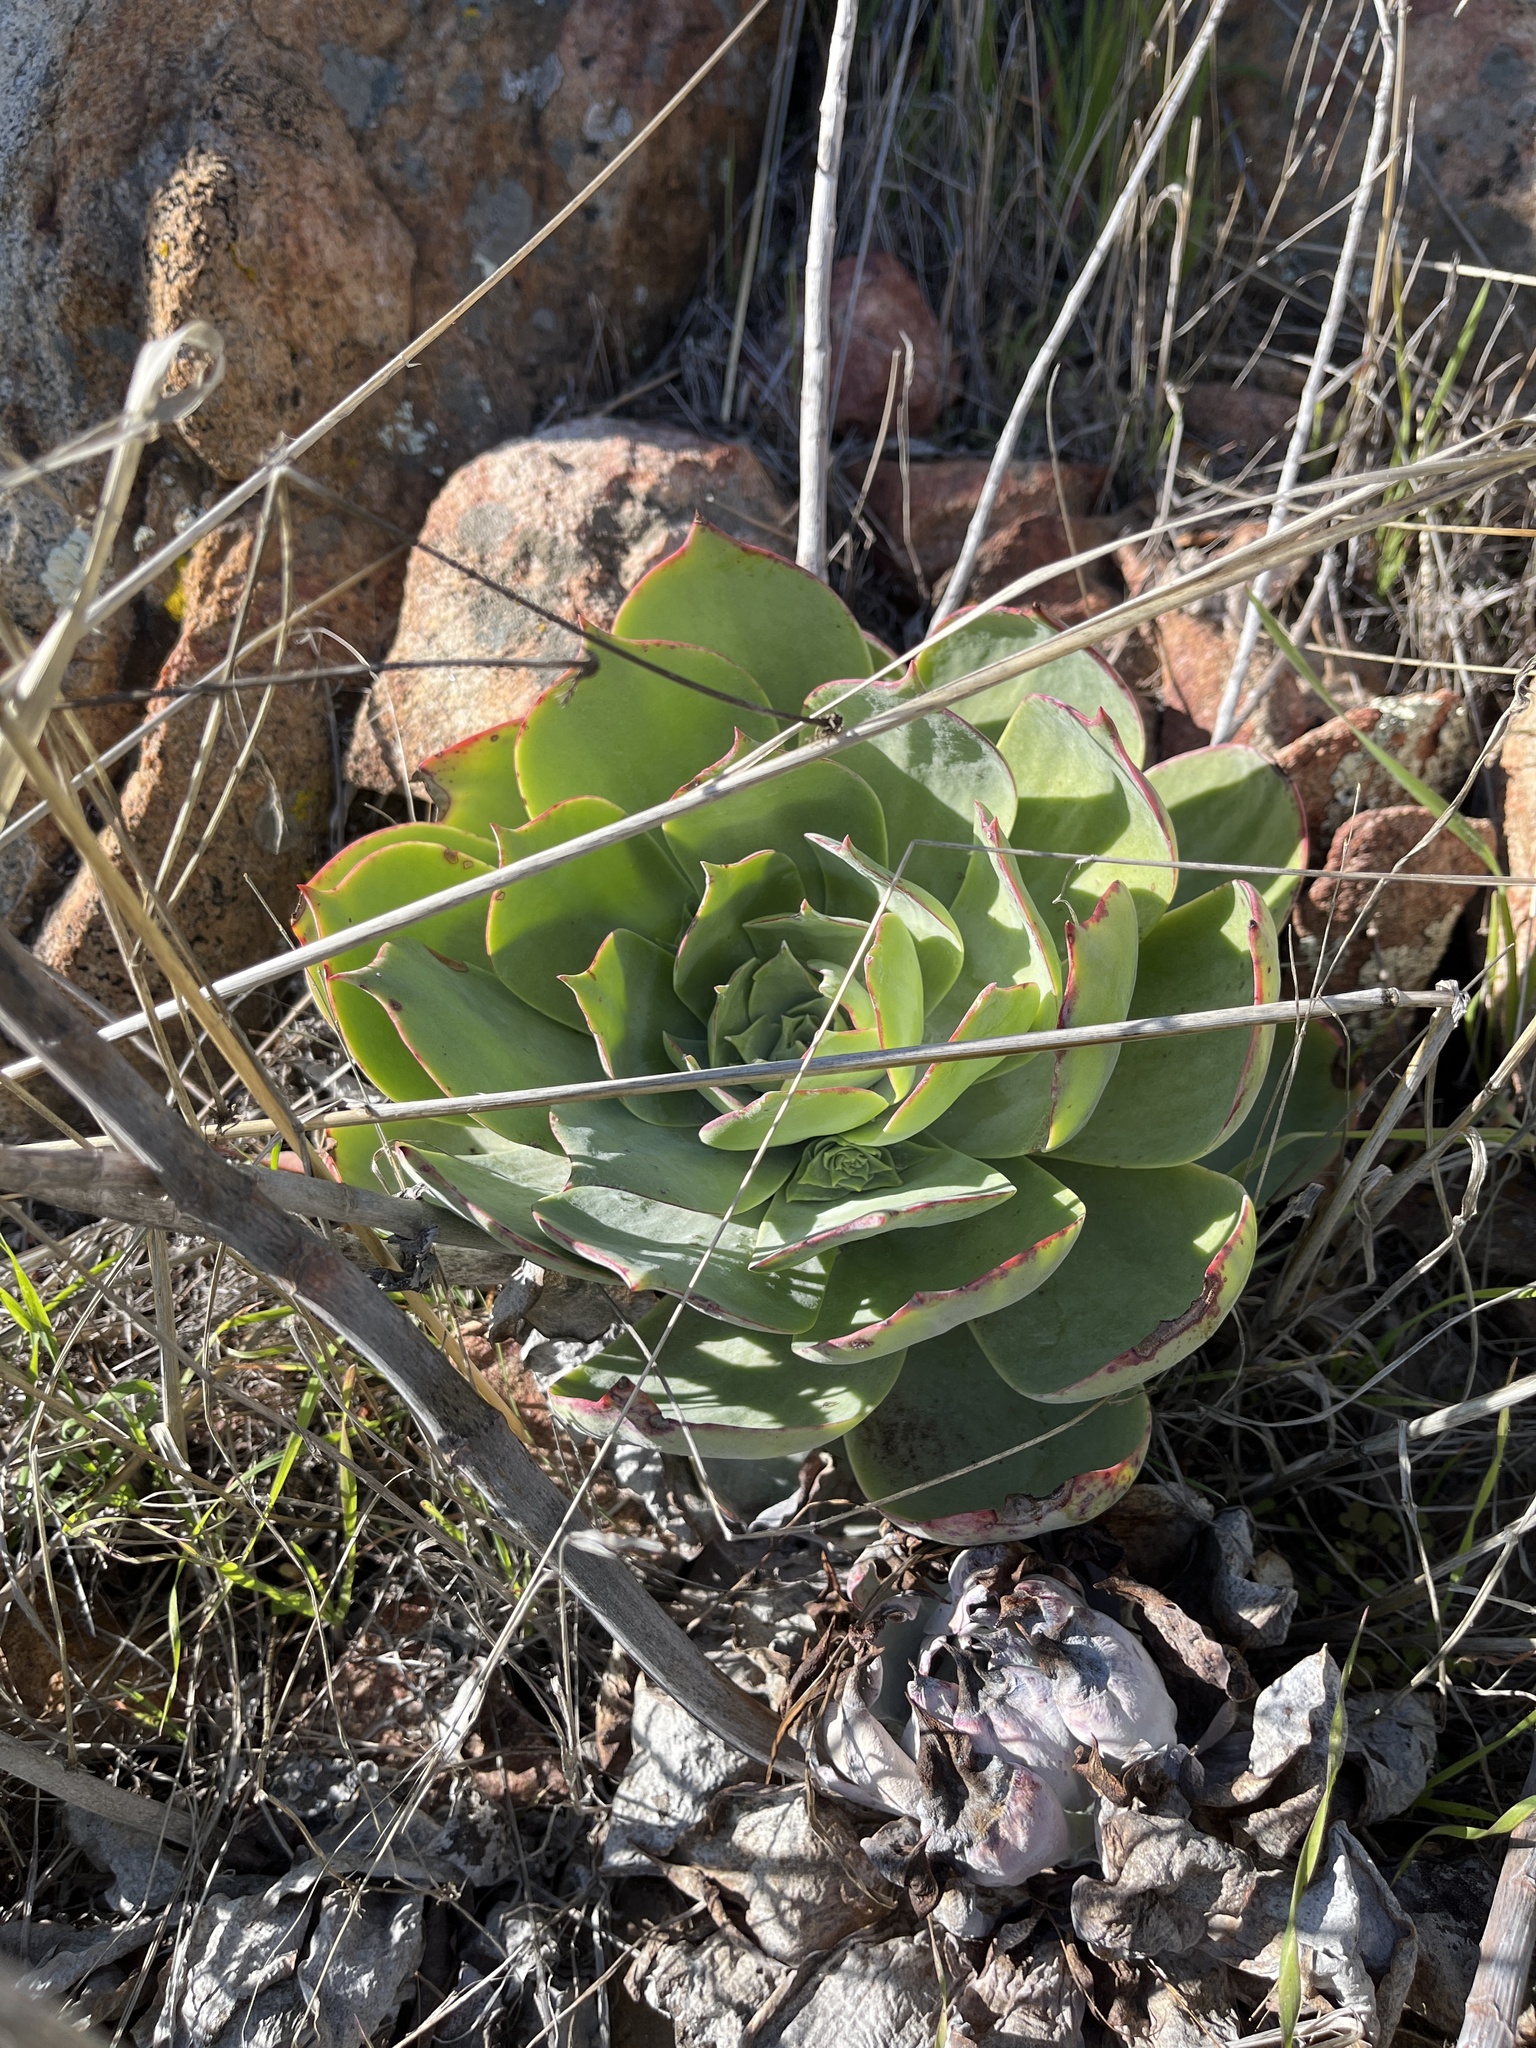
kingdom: Plantae
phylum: Tracheophyta
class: Magnoliopsida
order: Saxifragales
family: Crassulaceae
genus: Dudleya
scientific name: Dudleya pulverulenta
